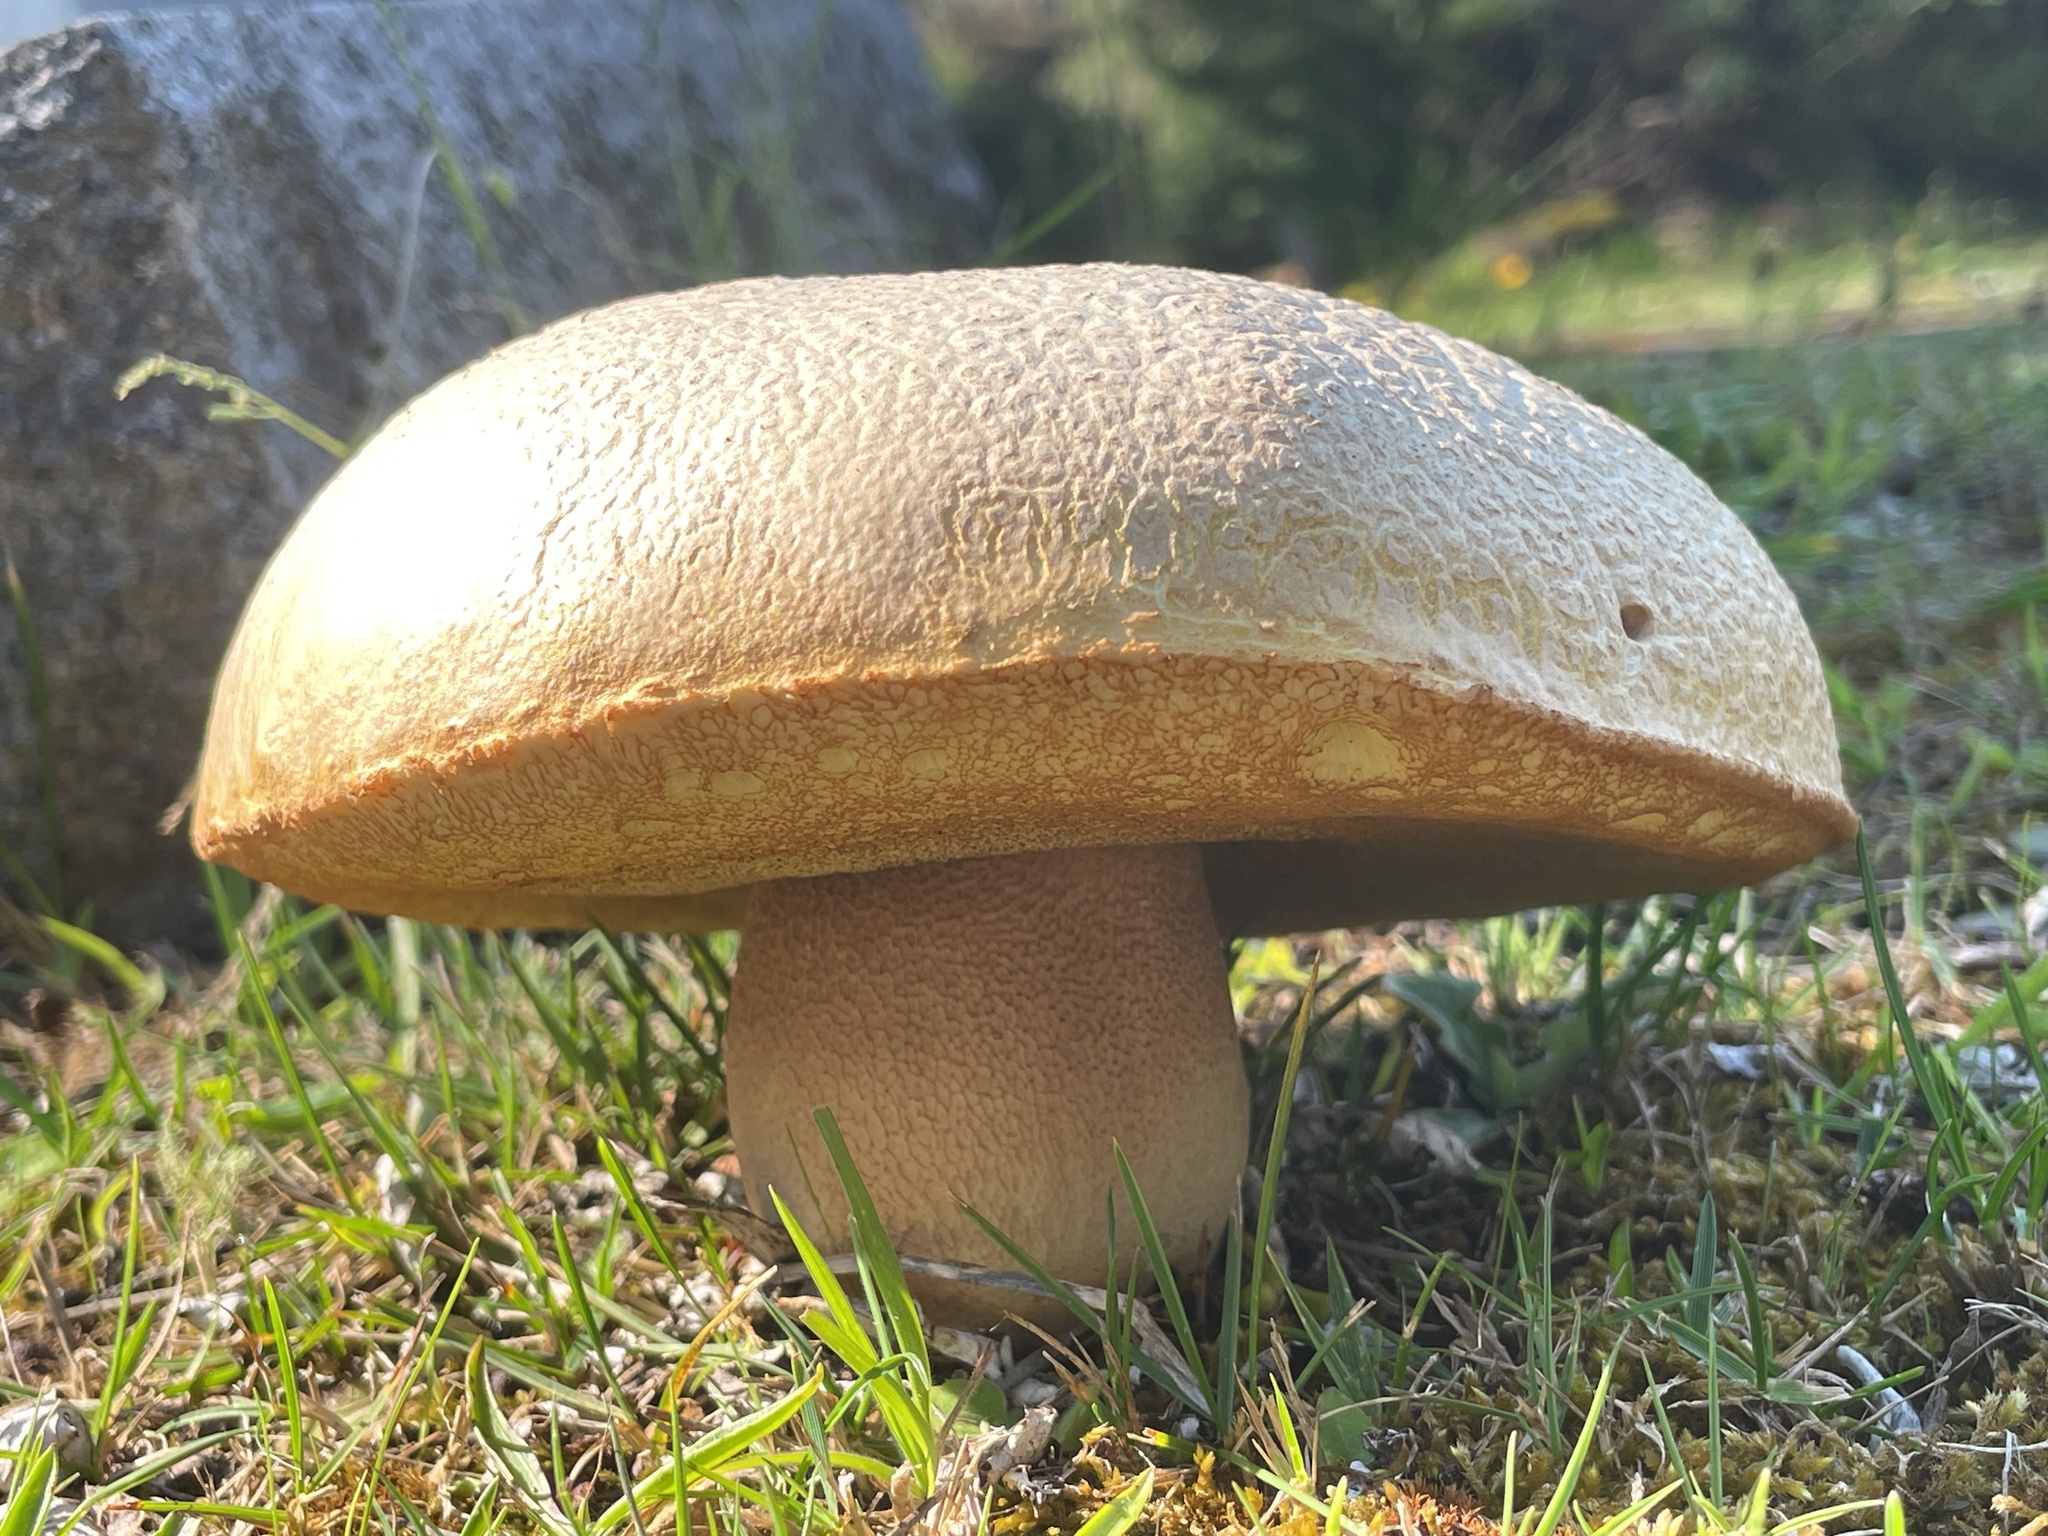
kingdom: Fungi
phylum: Basidiomycota
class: Agaricomycetes
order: Boletales
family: Boletaceae
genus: Boletus
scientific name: Boletus barrowsii
